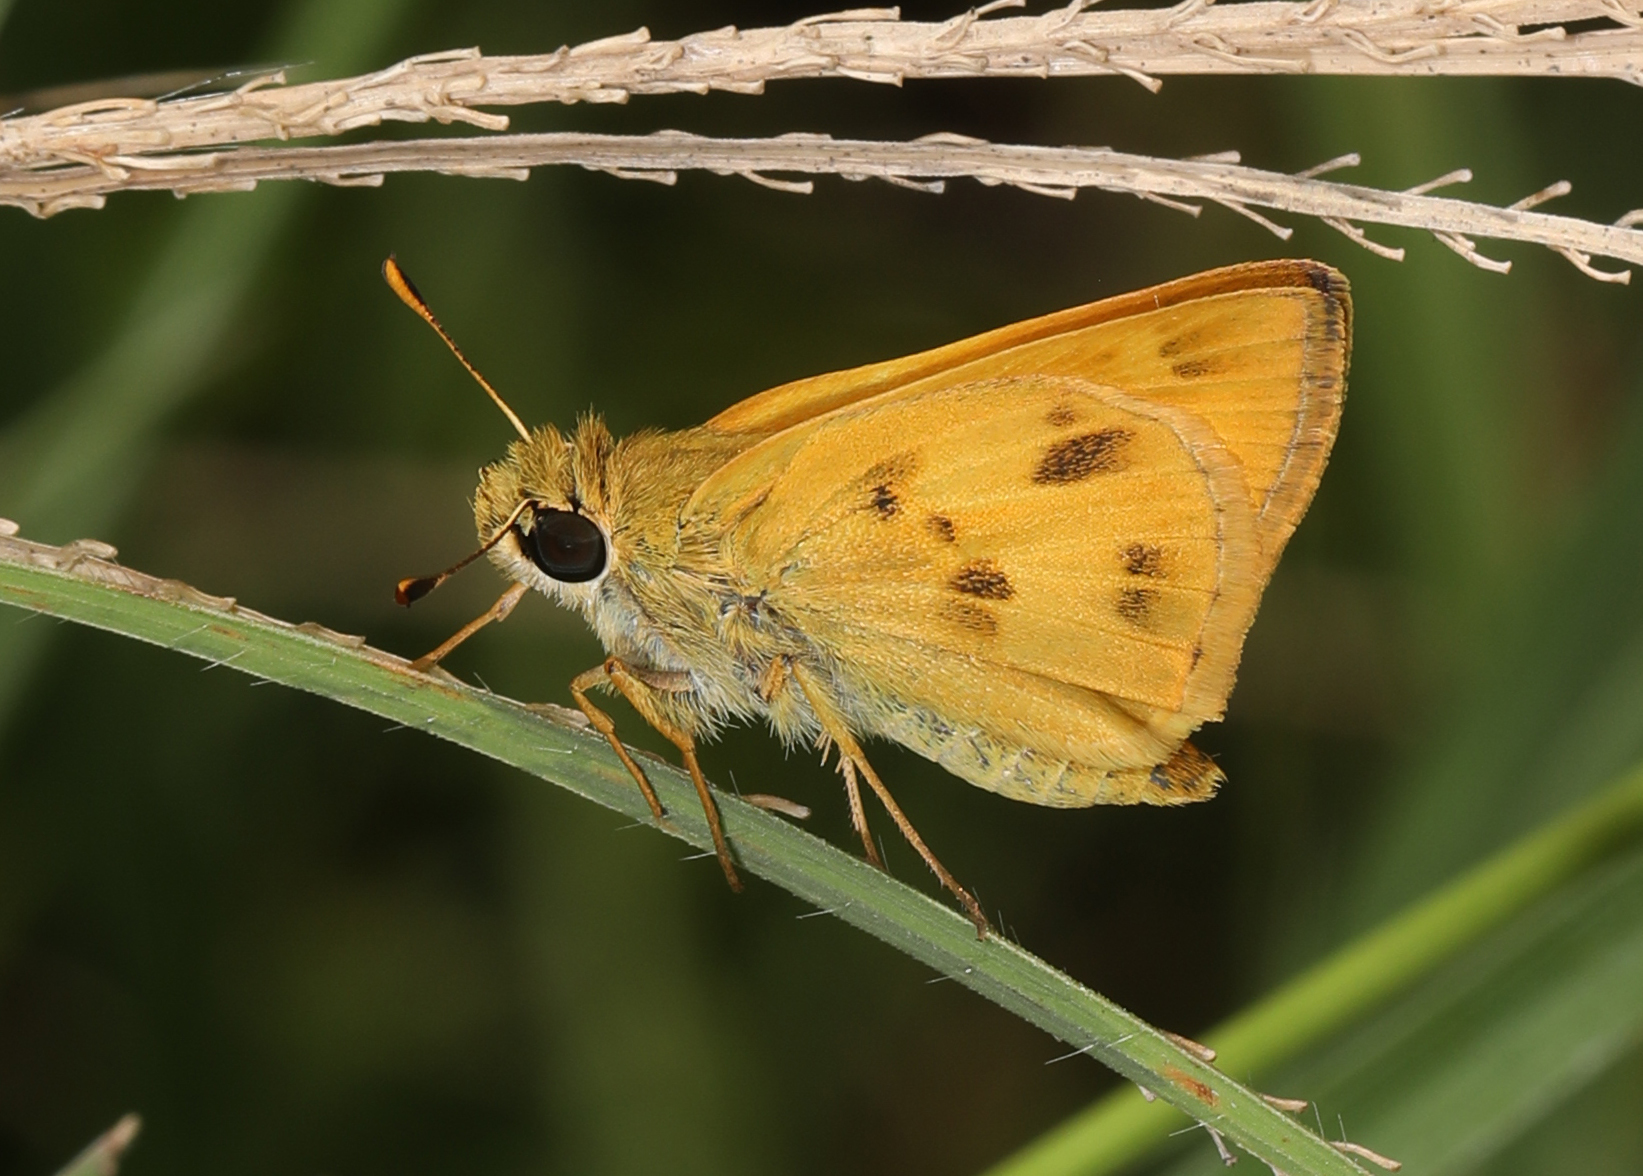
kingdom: Animalia
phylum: Arthropoda
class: Insecta
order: Lepidoptera
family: Hesperiidae
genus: Polites
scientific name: Polites vibex
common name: Whirlabout
